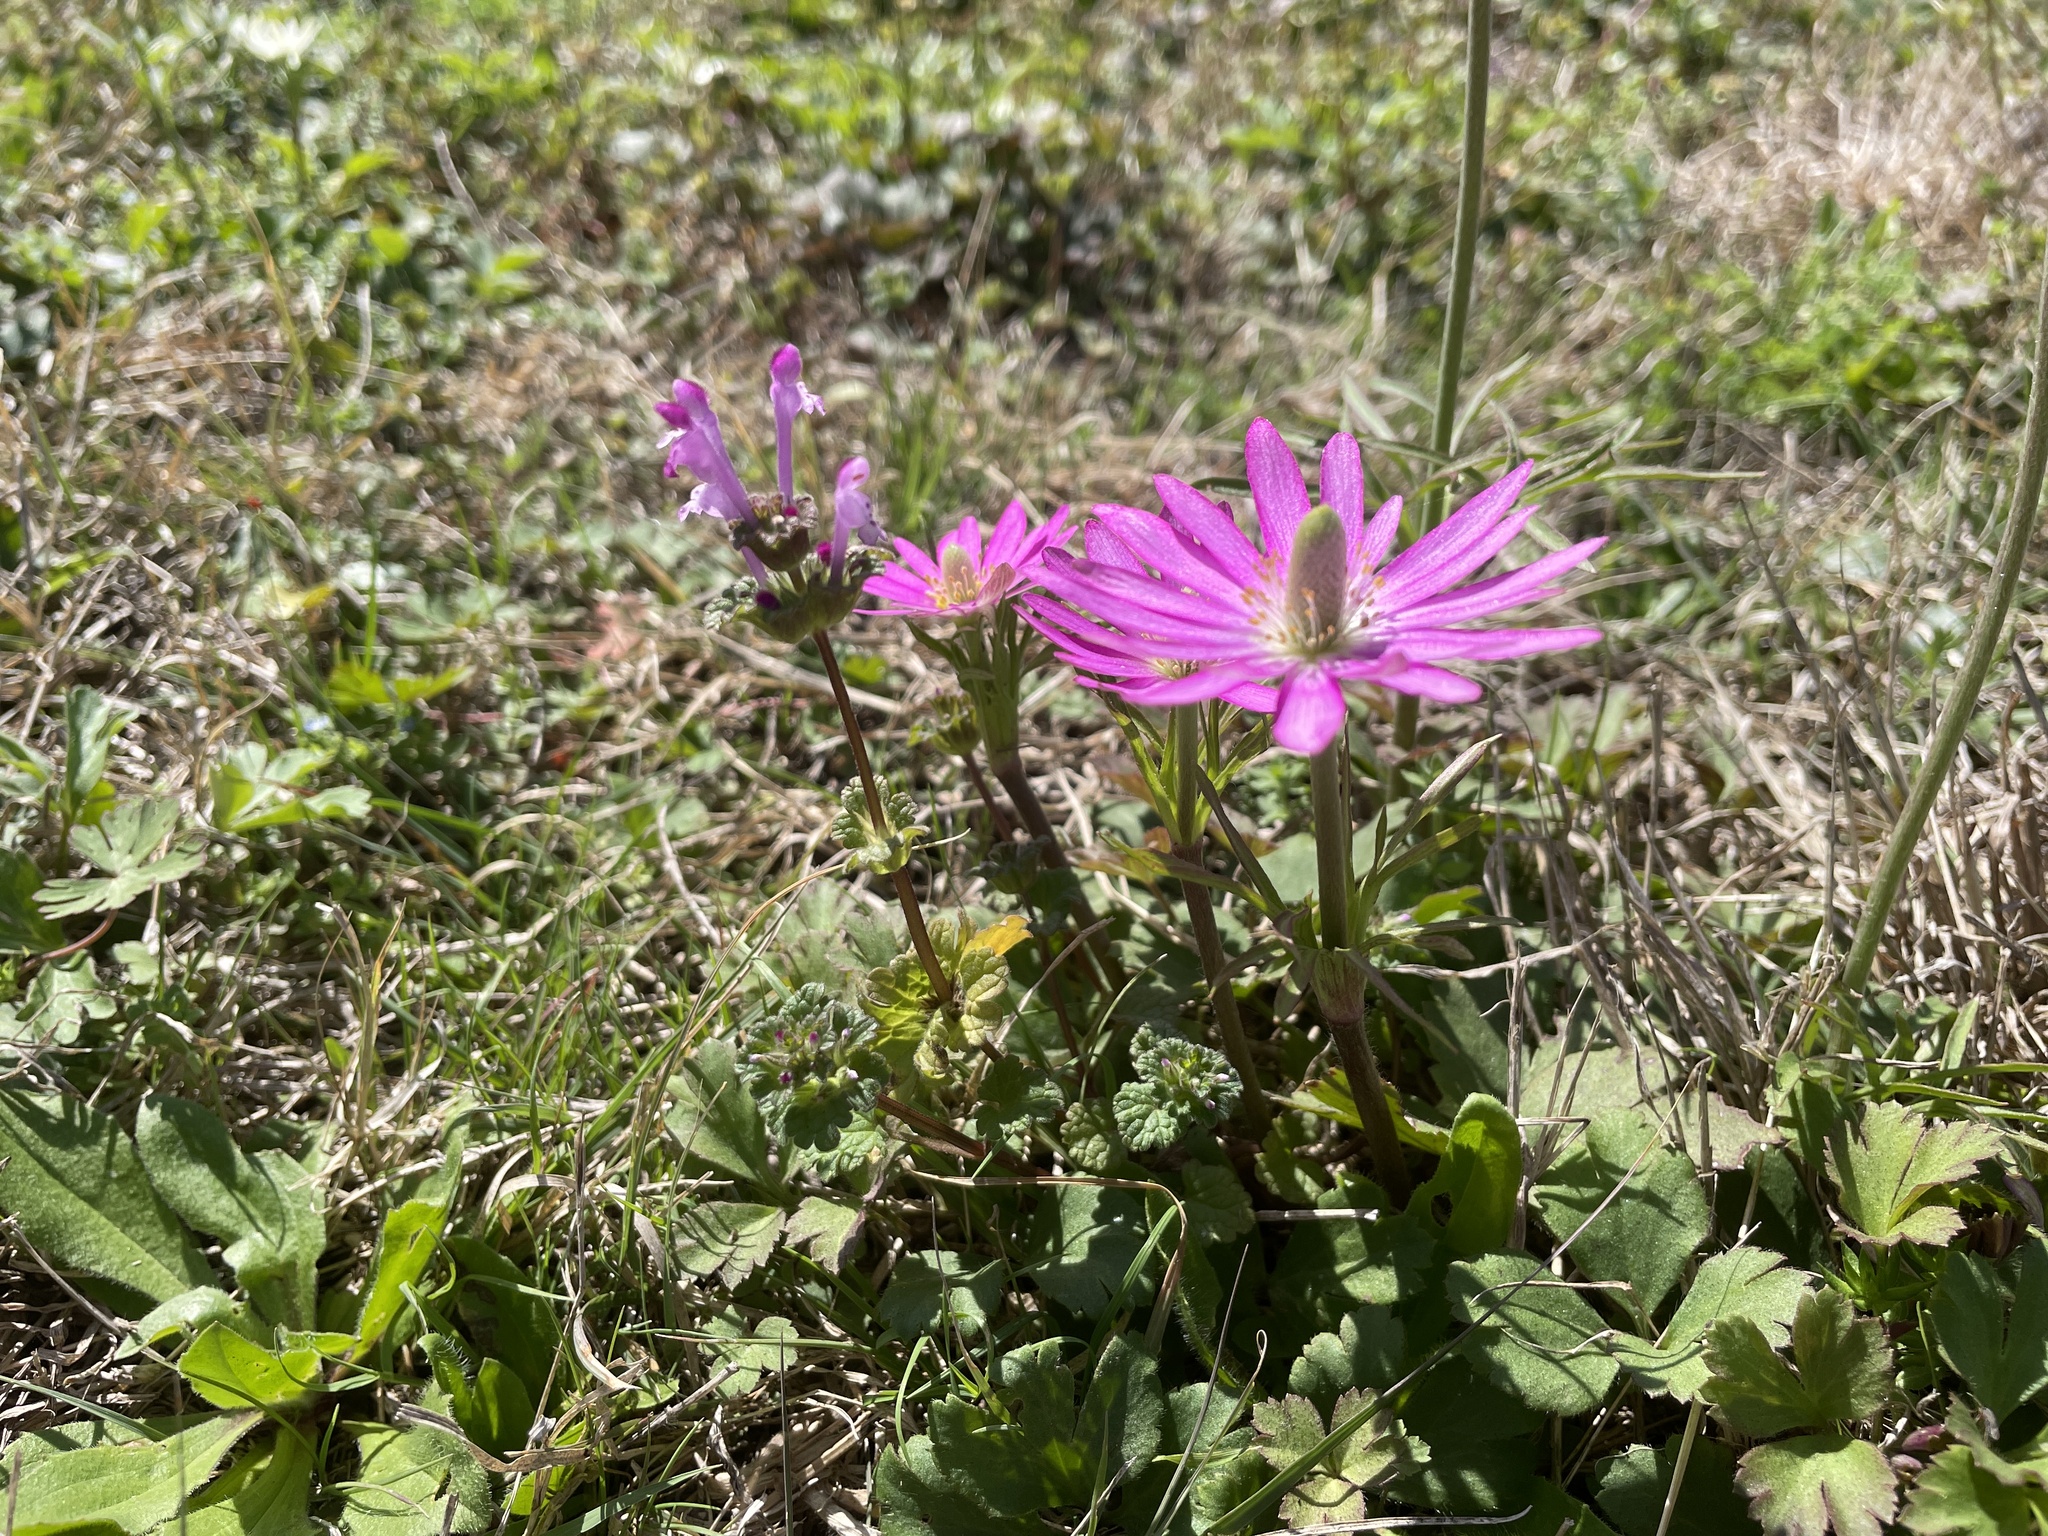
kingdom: Plantae
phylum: Tracheophyta
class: Magnoliopsida
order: Ranunculales
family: Ranunculaceae
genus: Anemone
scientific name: Anemone berlandieri
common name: Ten-petal anemone
